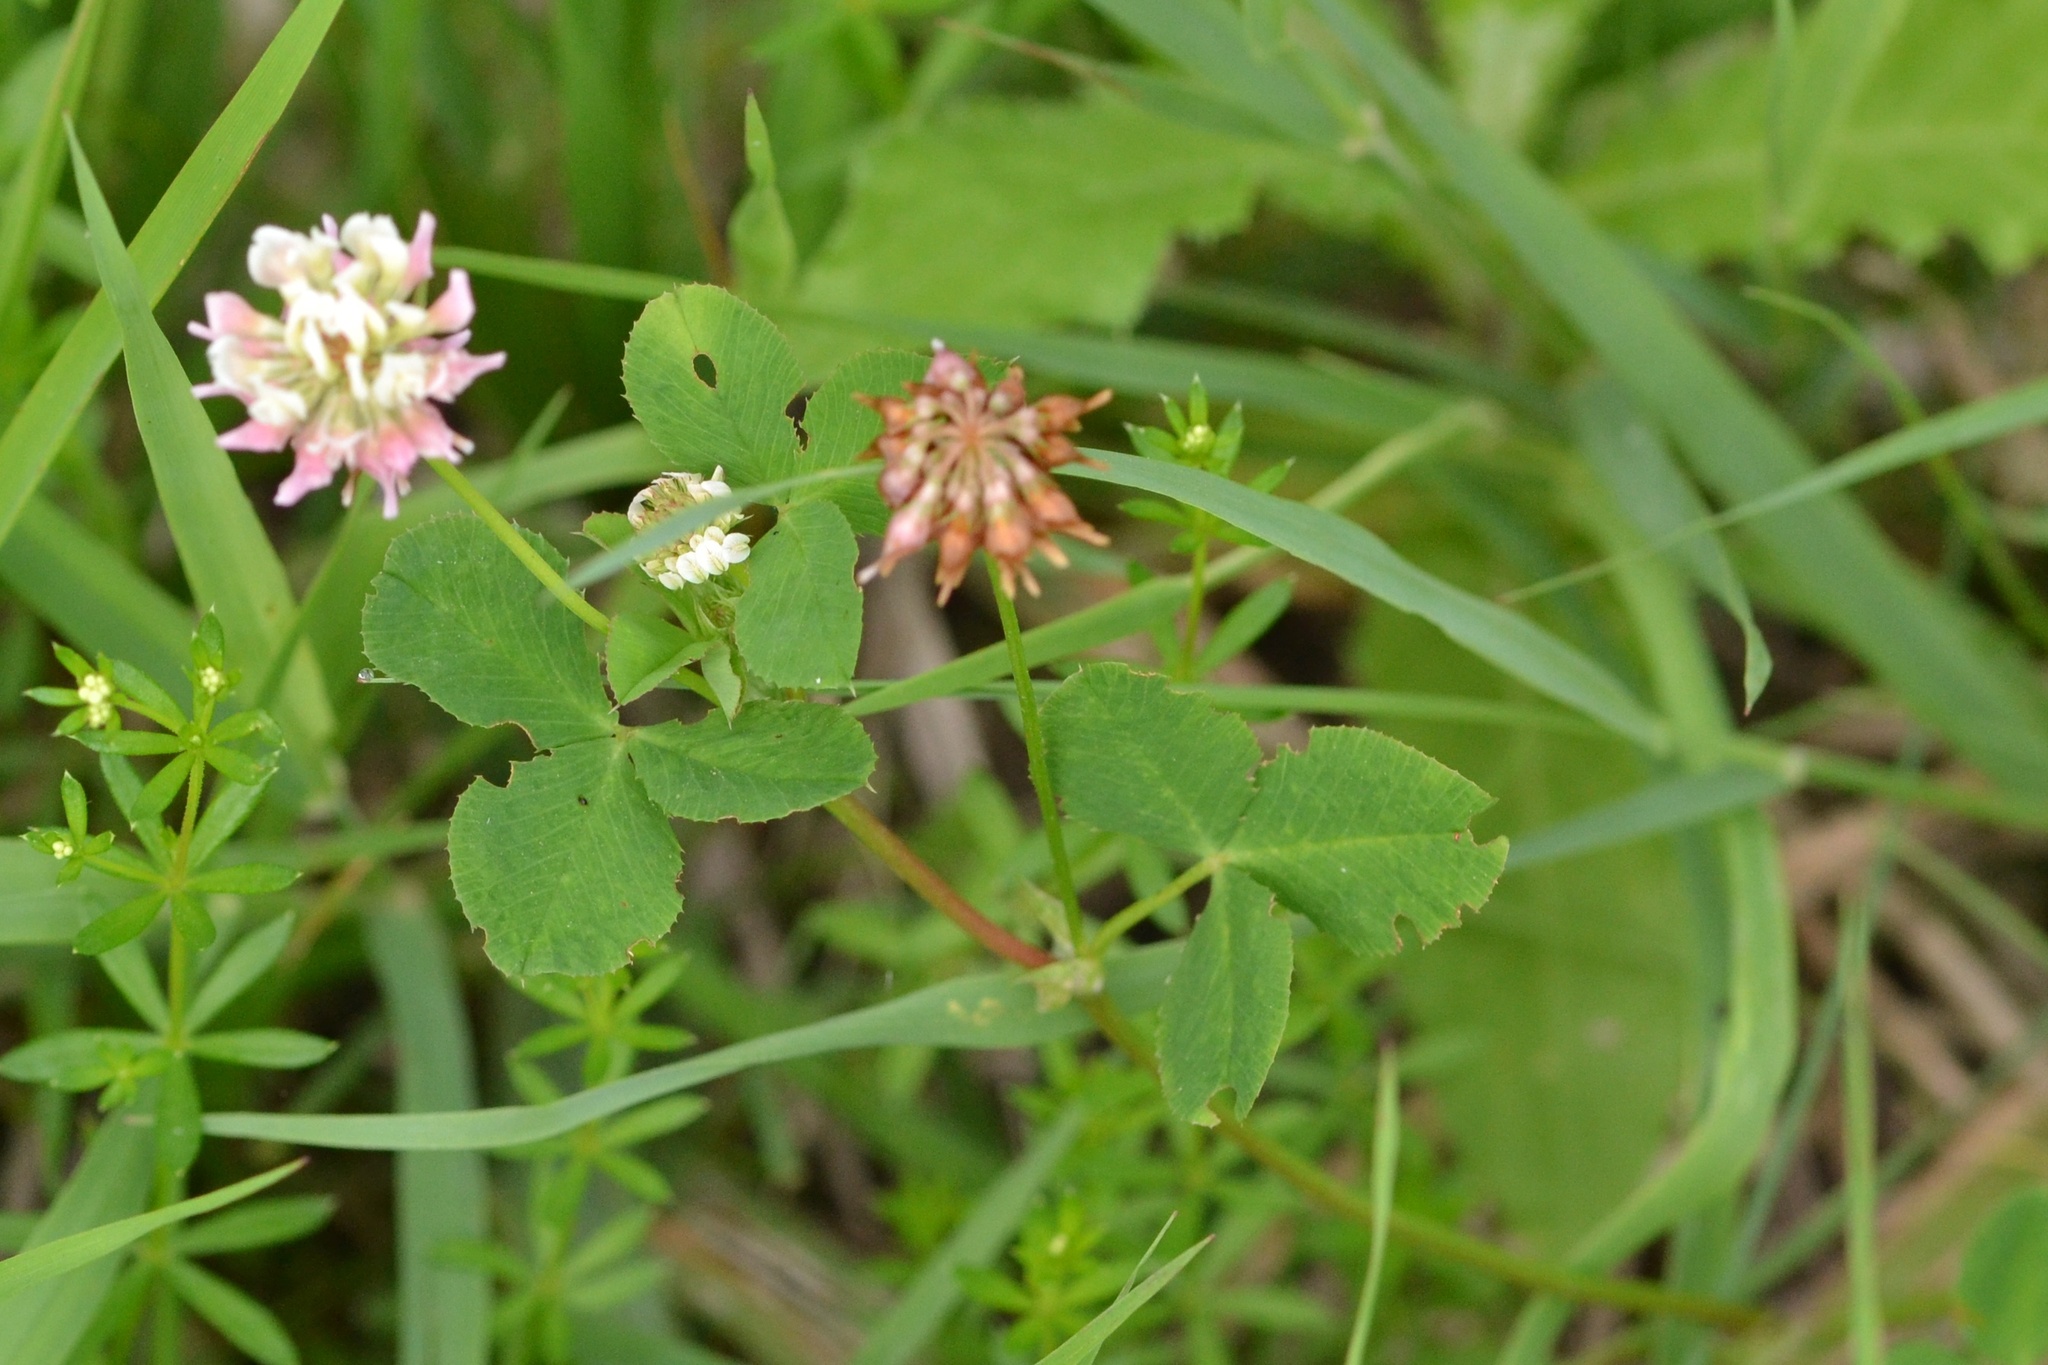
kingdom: Plantae
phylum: Tracheophyta
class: Magnoliopsida
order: Fabales
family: Fabaceae
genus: Trifolium
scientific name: Trifolium hybridum
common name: Alsike clover
